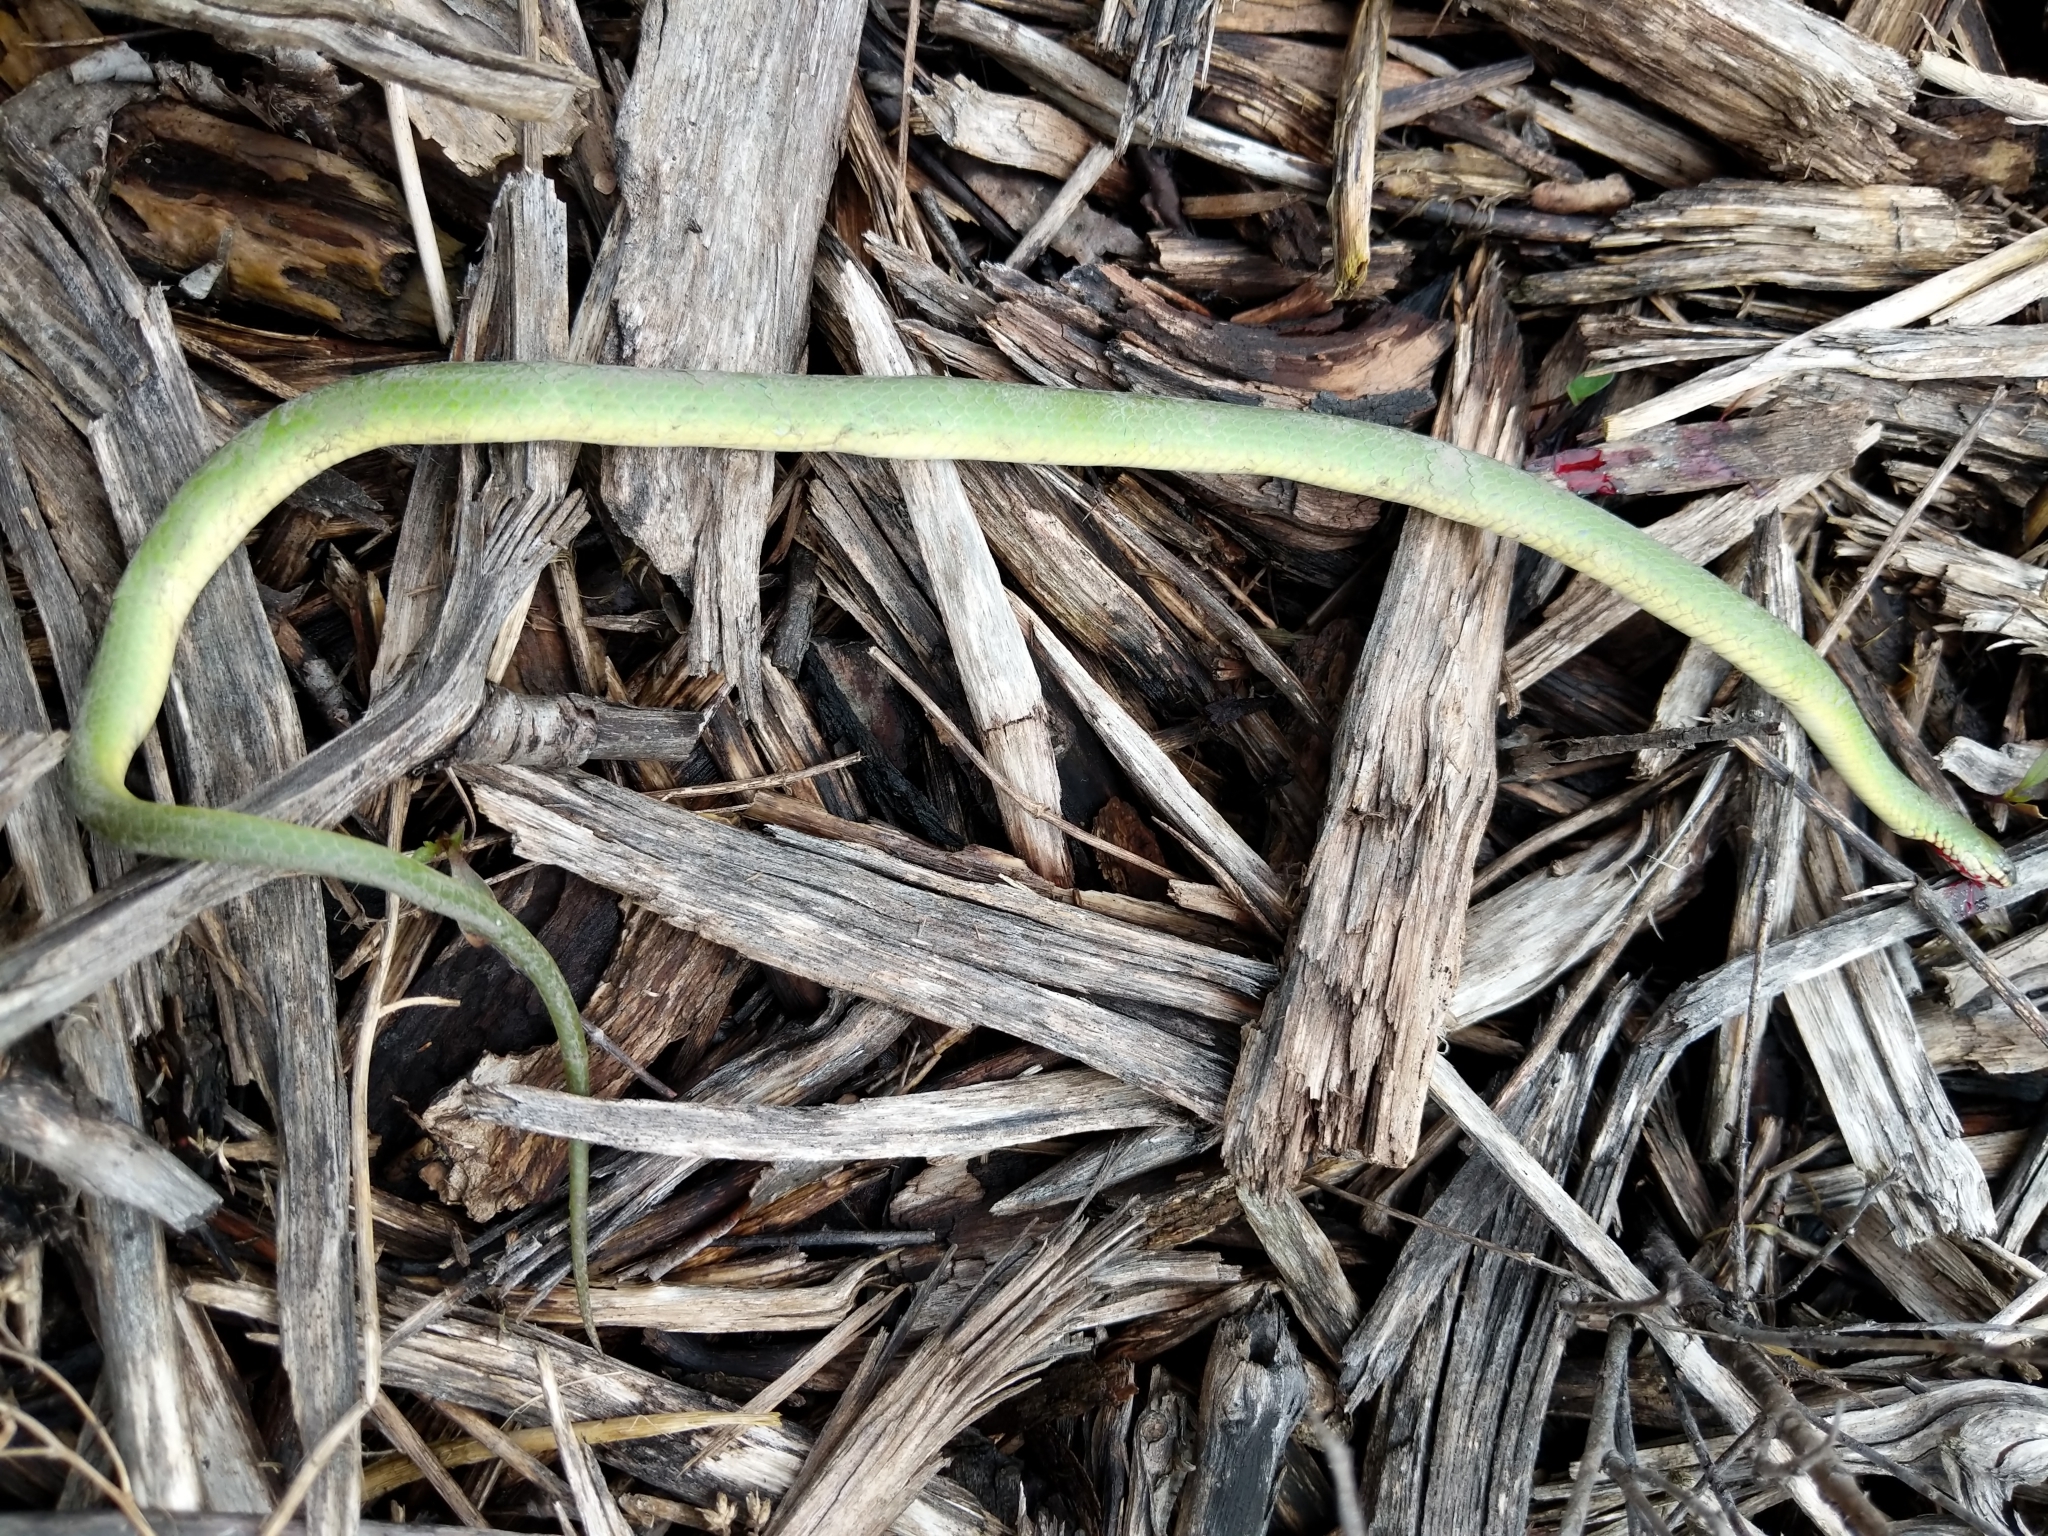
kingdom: Animalia
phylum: Chordata
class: Squamata
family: Colubridae
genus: Opheodrys
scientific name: Opheodrys vernalis
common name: Smooth green snake
